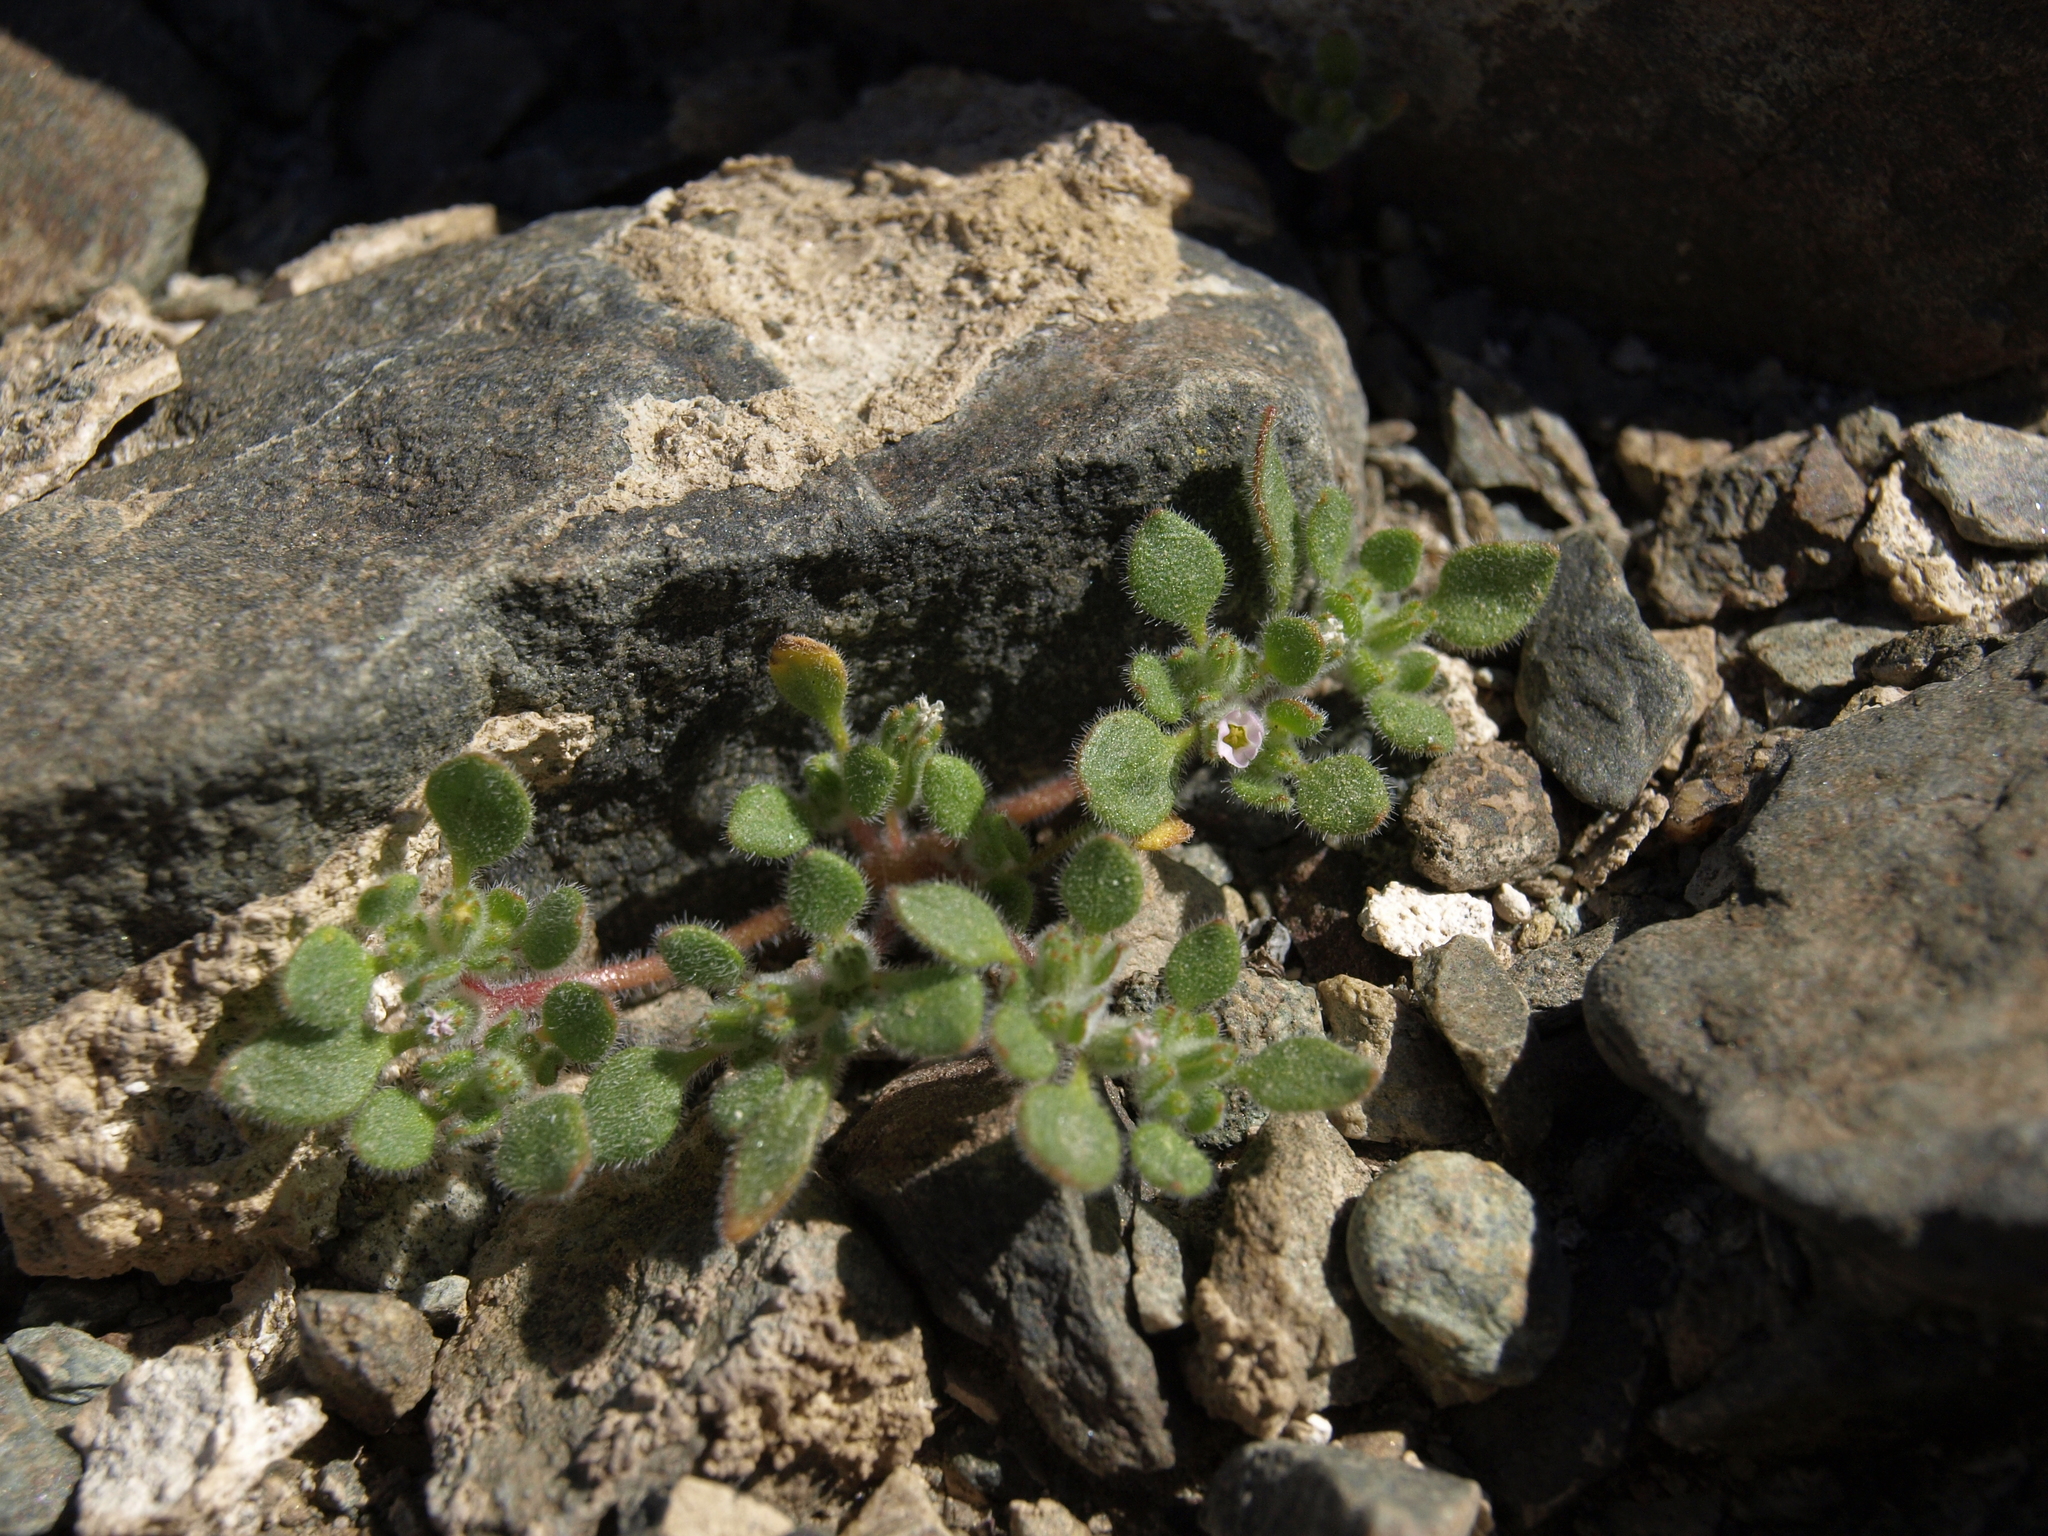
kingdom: Plantae
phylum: Tracheophyta
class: Magnoliopsida
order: Boraginales
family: Namaceae
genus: Nama
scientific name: Nama pusilla
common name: Eggleaf nama
